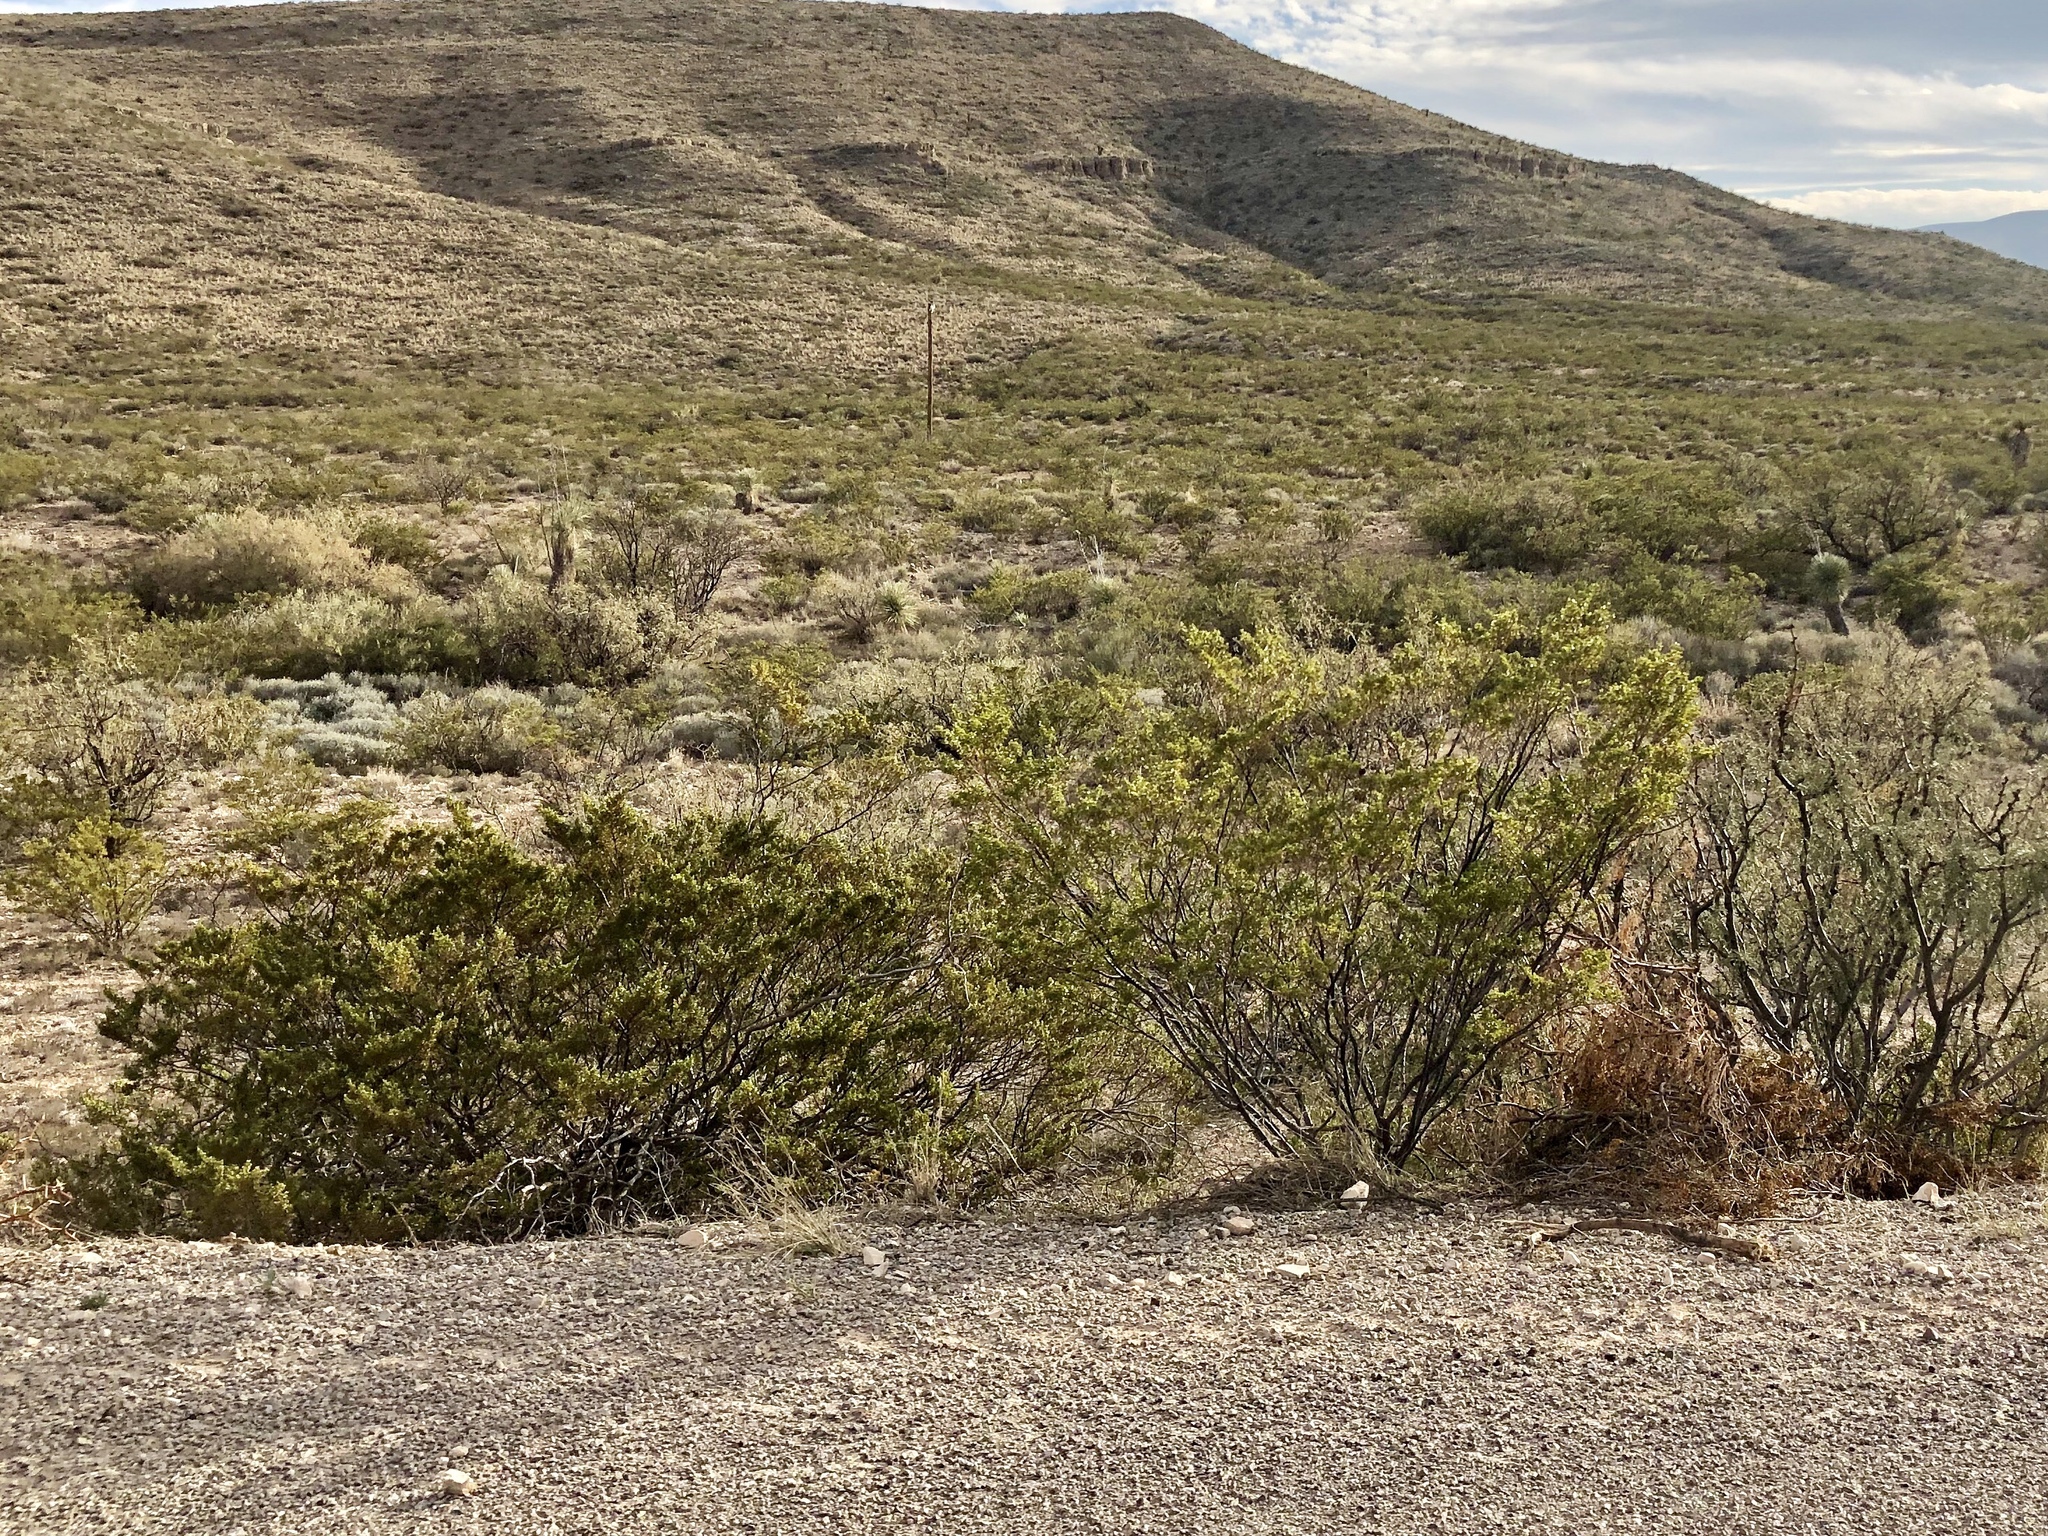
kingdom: Plantae
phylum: Tracheophyta
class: Magnoliopsida
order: Zygophyllales
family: Zygophyllaceae
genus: Larrea
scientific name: Larrea tridentata
